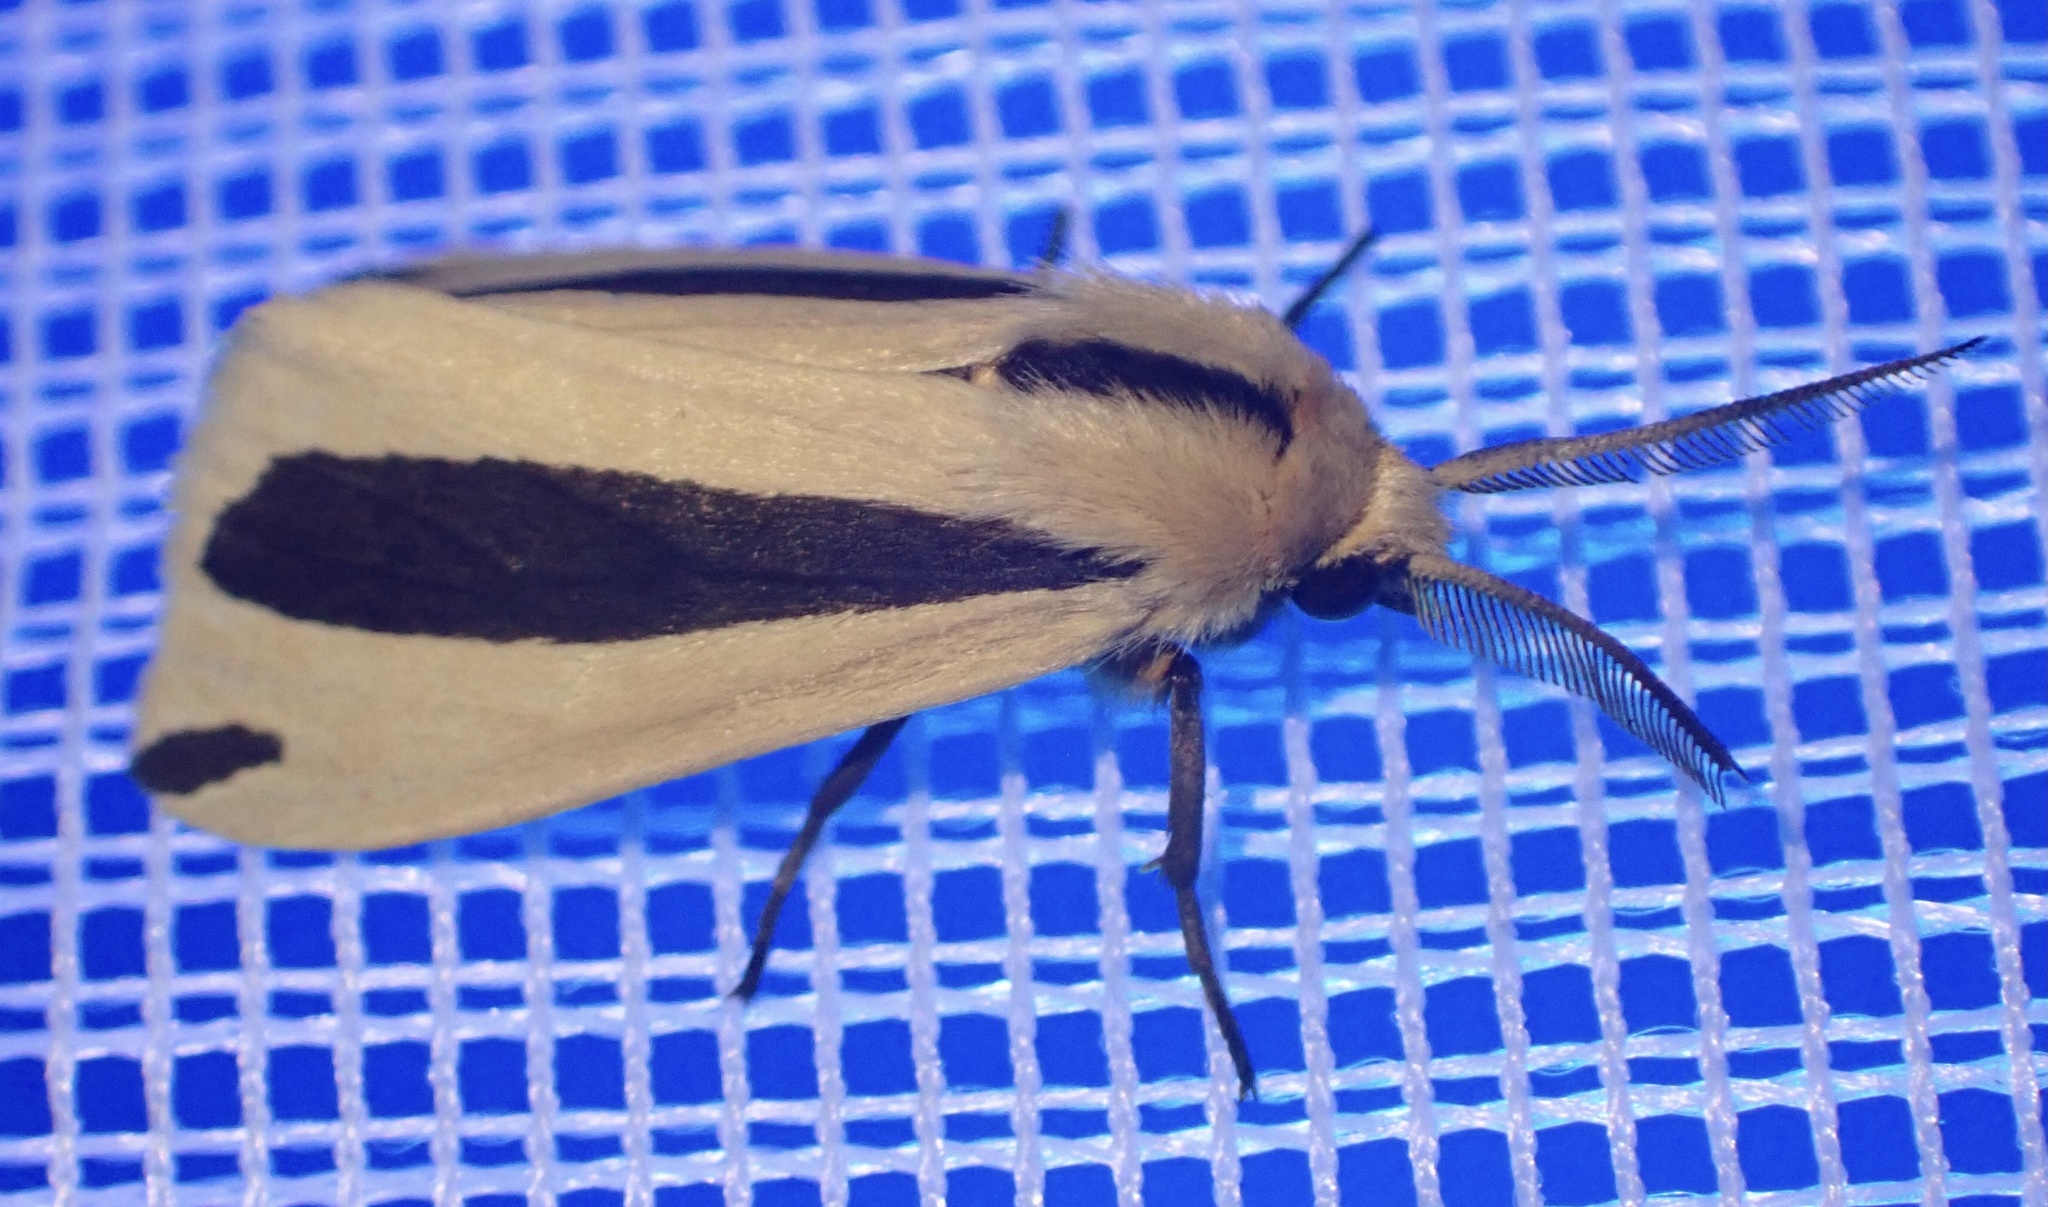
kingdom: Animalia
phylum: Arthropoda
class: Insecta
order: Lepidoptera
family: Erebidae
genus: Epilacydes
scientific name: Epilacydes scita
